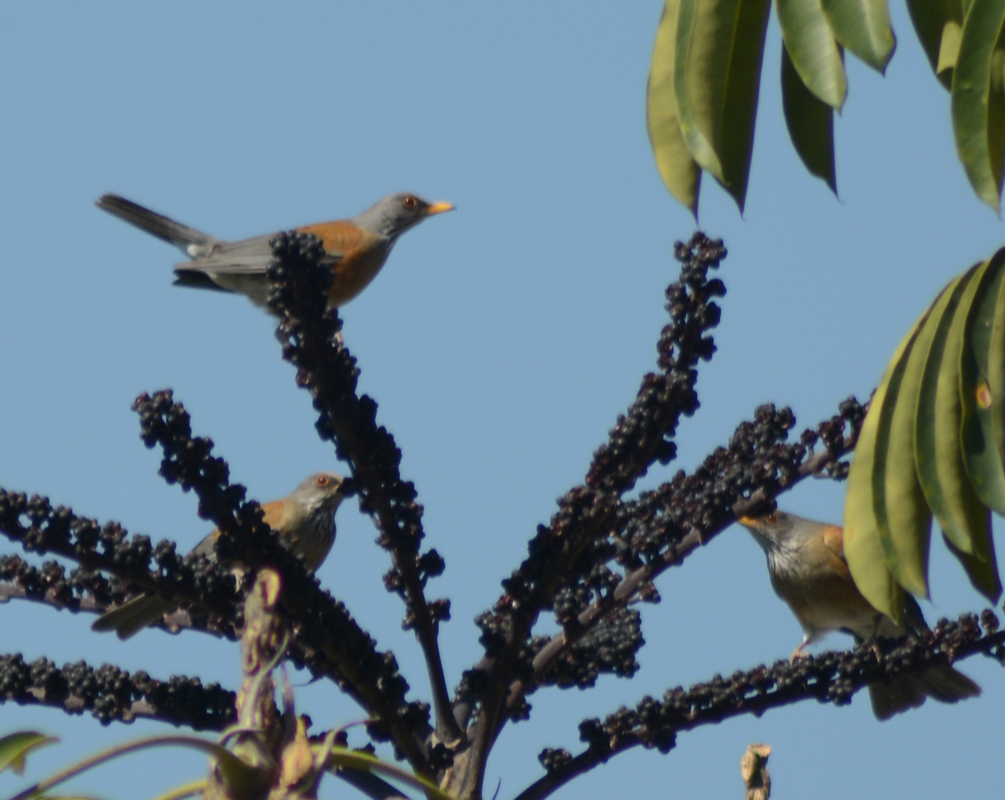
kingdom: Animalia
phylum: Chordata
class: Aves
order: Passeriformes
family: Turdidae
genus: Turdus
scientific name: Turdus rufopalliatus
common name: Rufous-backed robin
